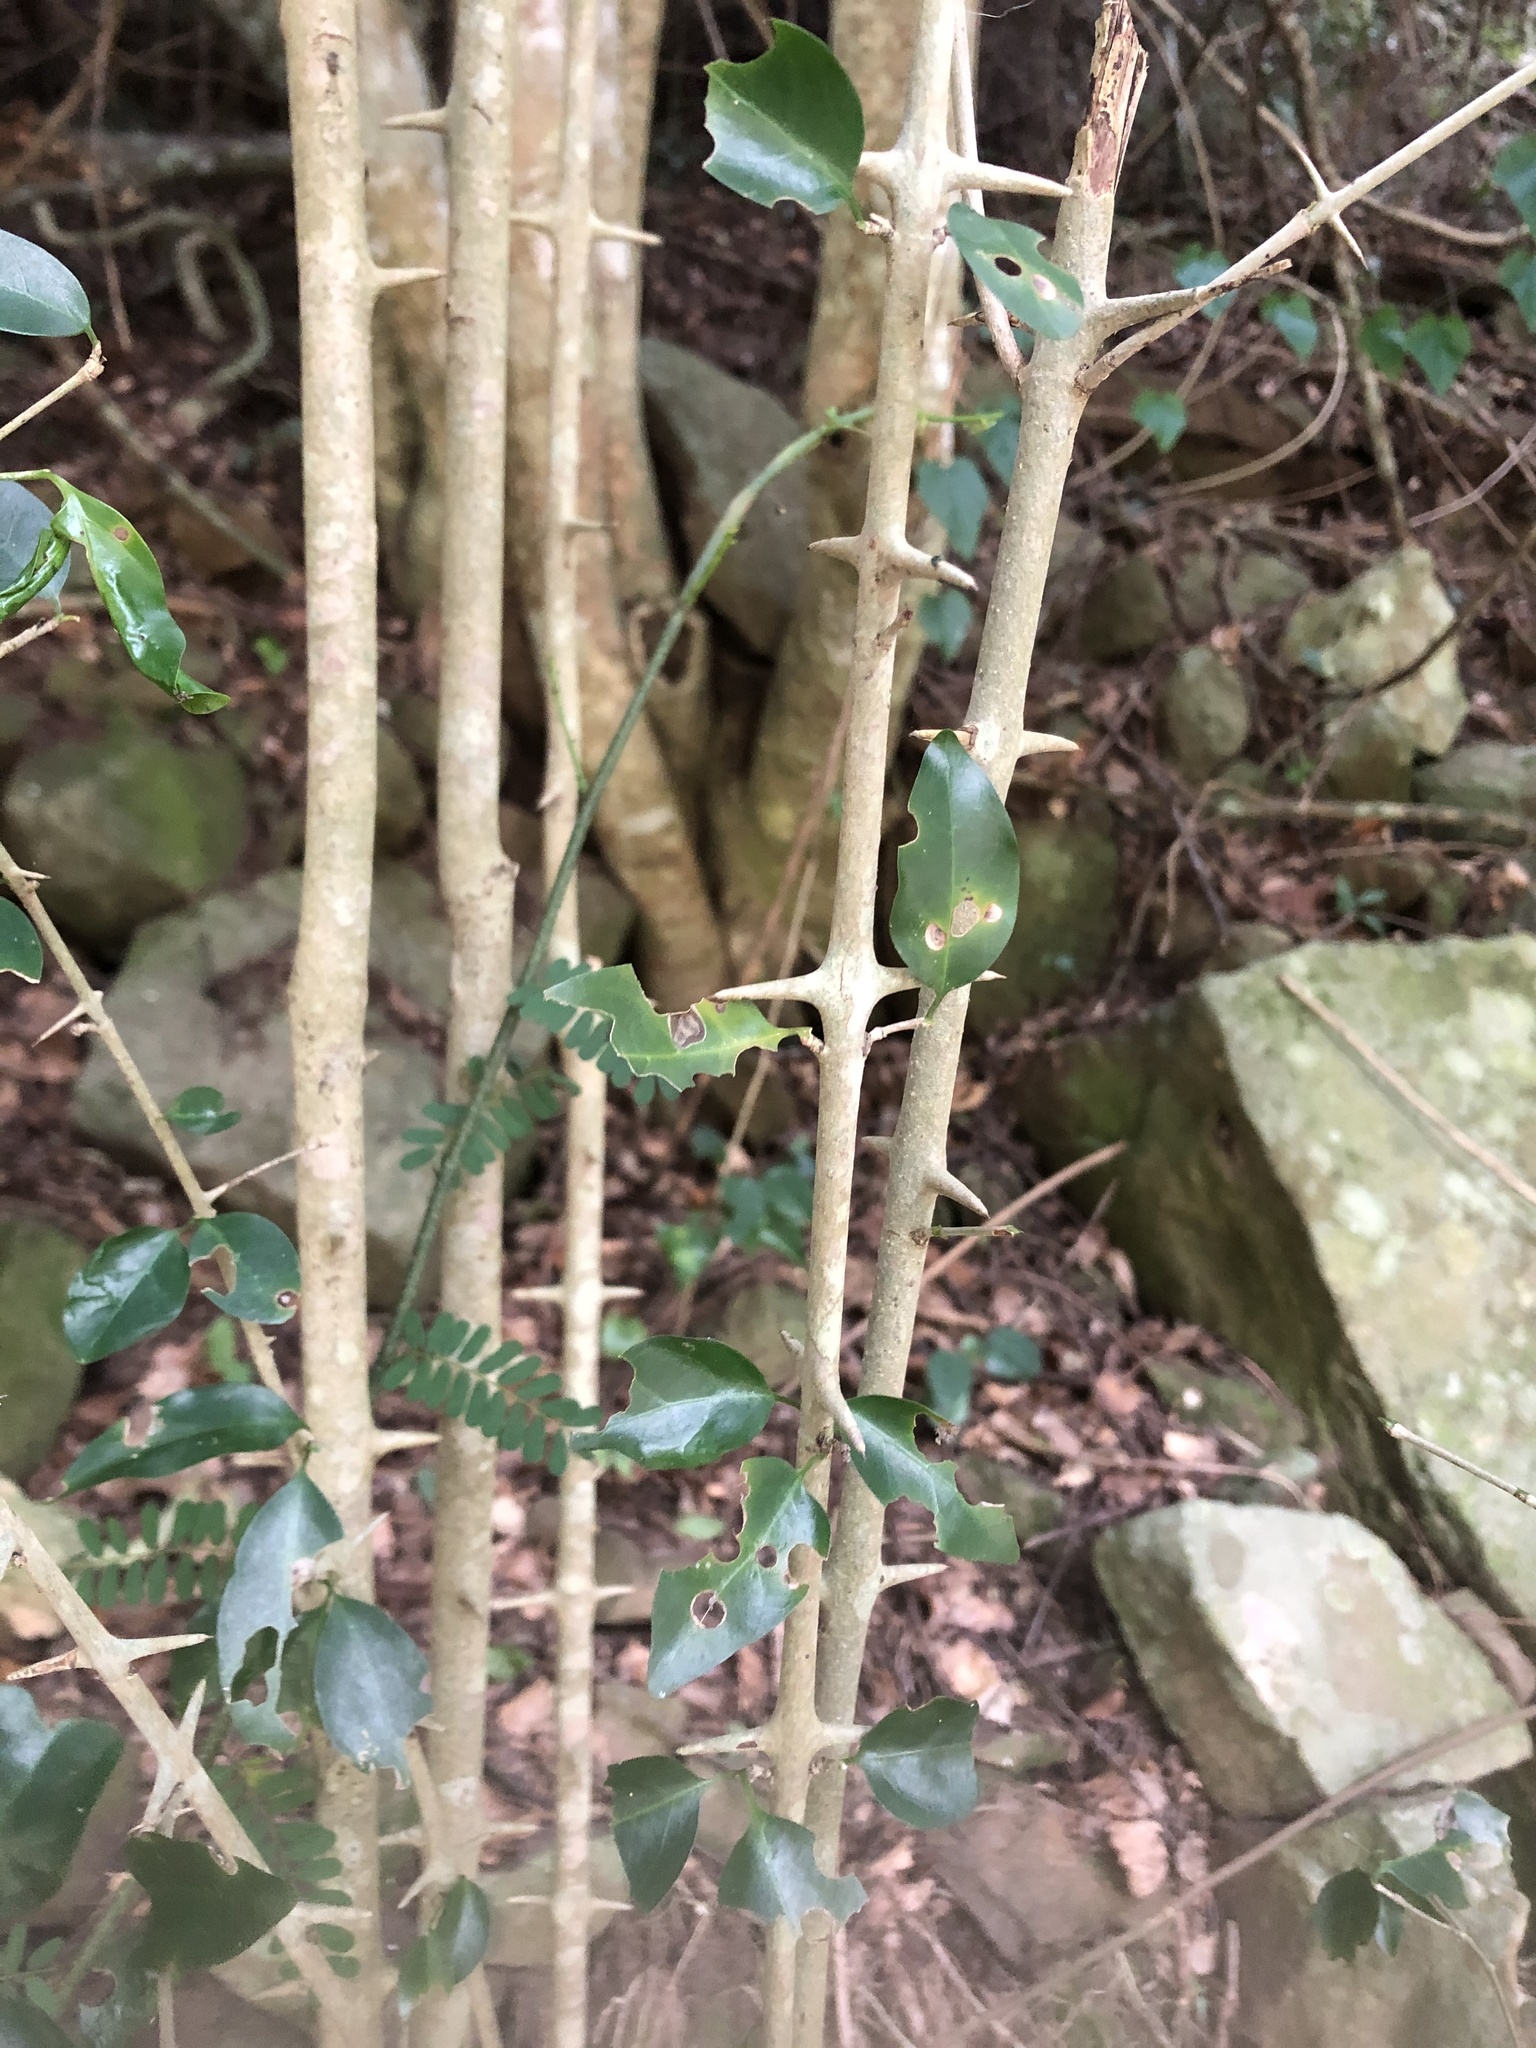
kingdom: Plantae
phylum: Tracheophyta
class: Magnoliopsida
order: Gentianales
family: Rubiaceae
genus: Catunaregam
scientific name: Catunaregam spinosa
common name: Emetic-nut
